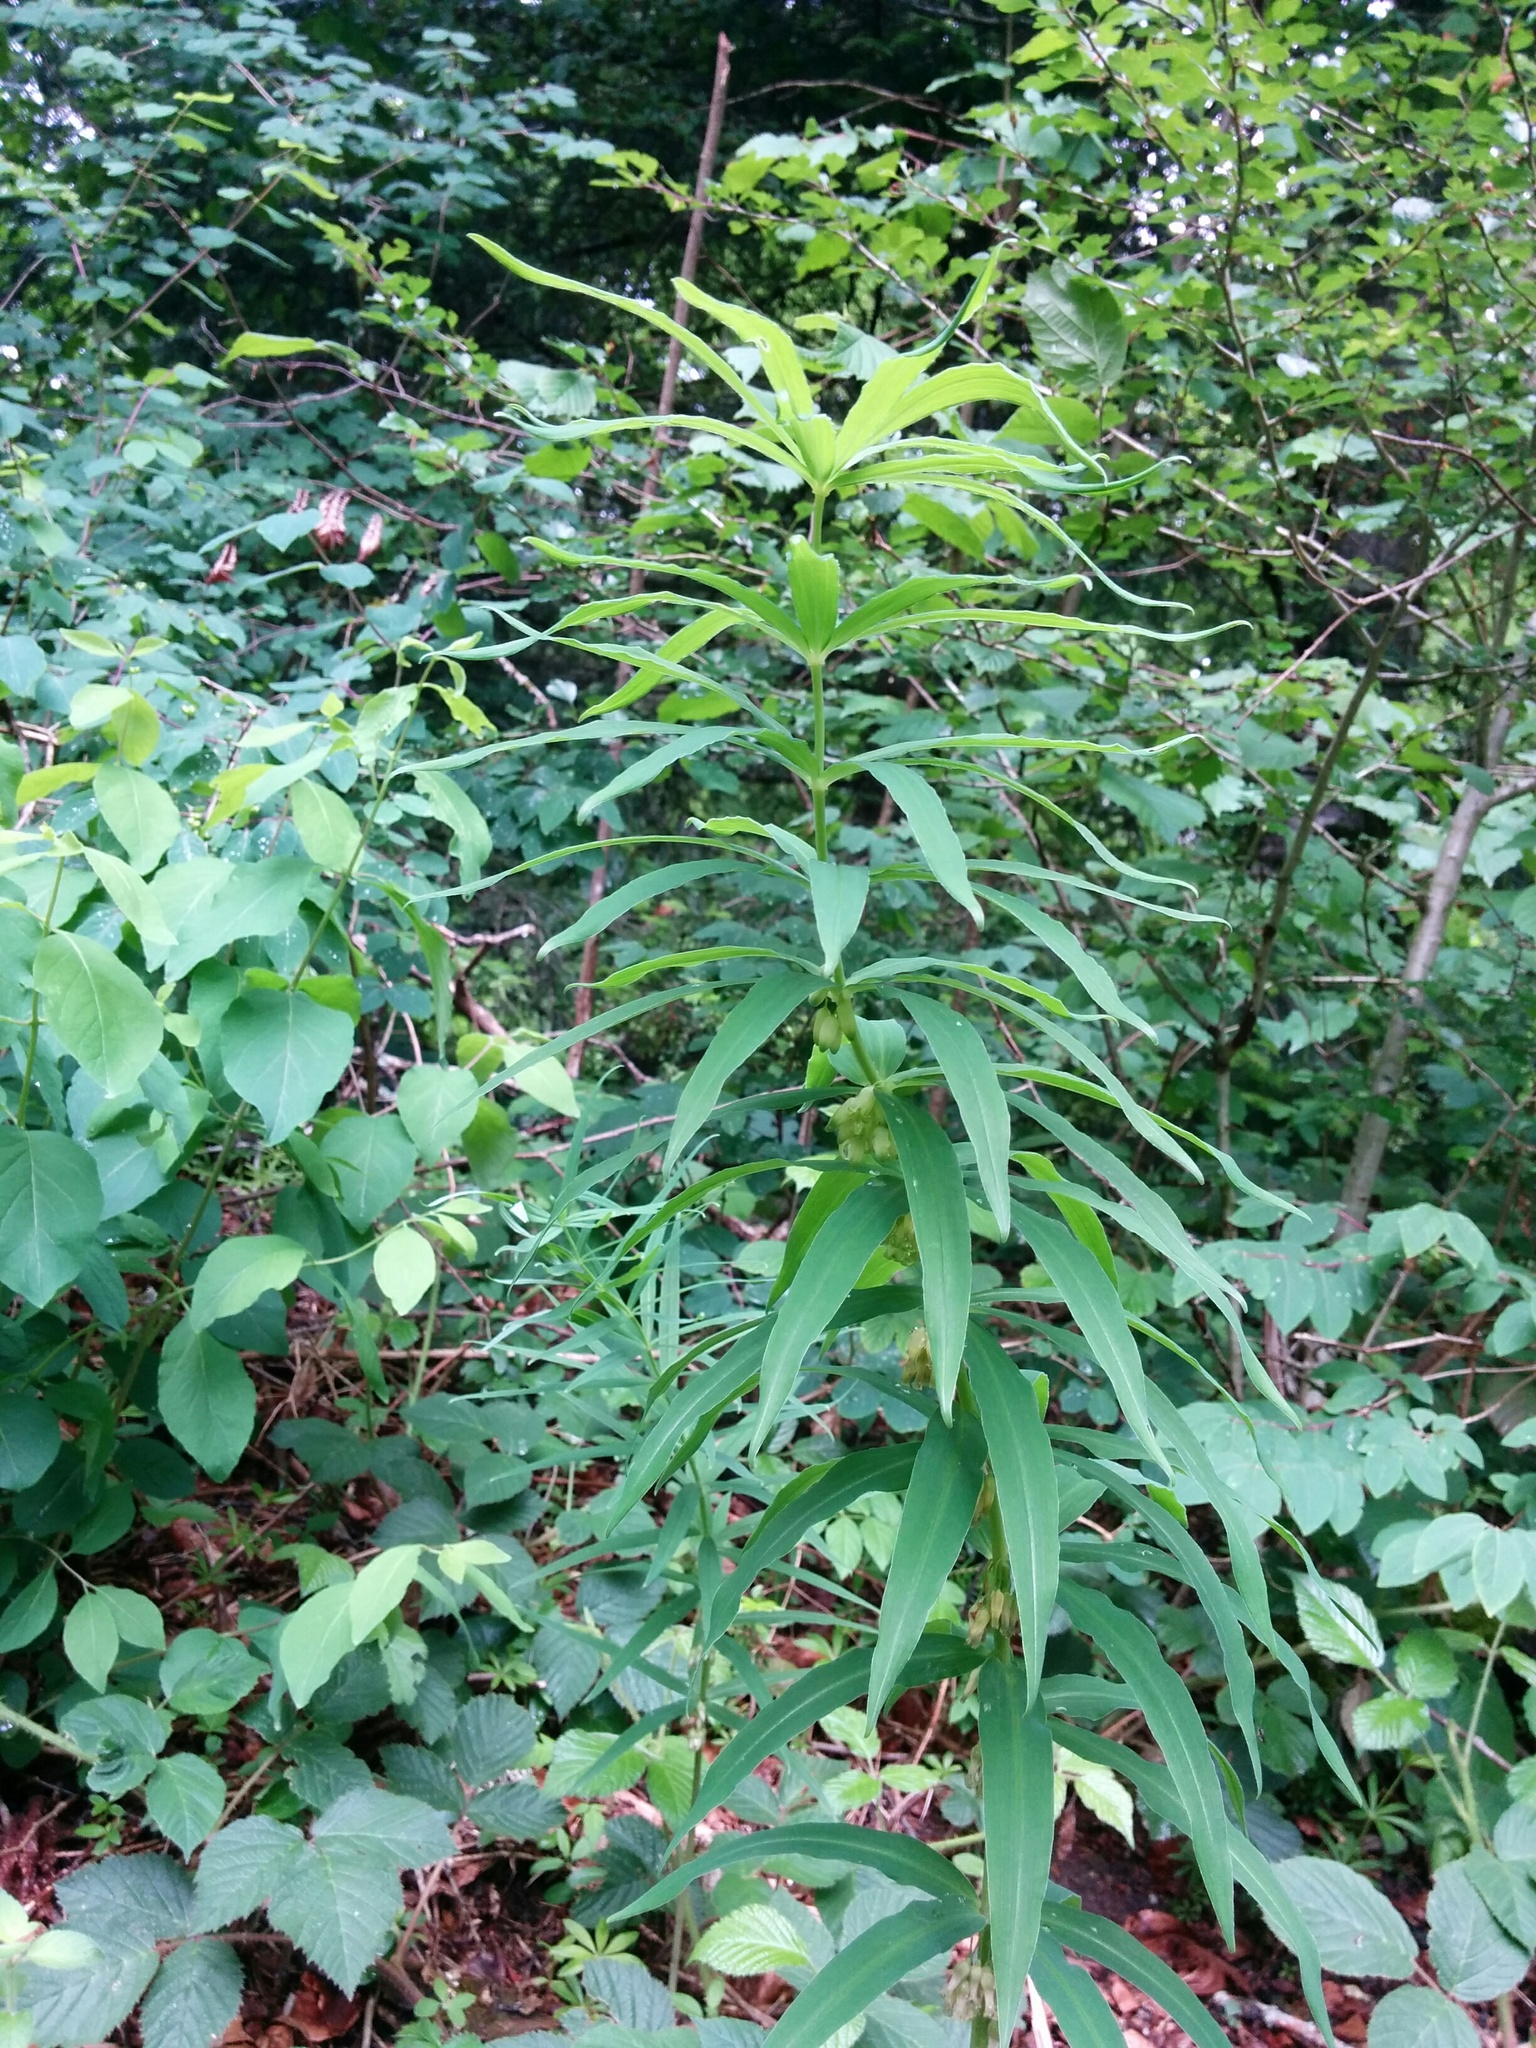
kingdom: Plantae
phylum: Tracheophyta
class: Liliopsida
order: Asparagales
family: Asparagaceae
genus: Polygonatum
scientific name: Polygonatum verticillatum
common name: Whorled solomon's-seal
